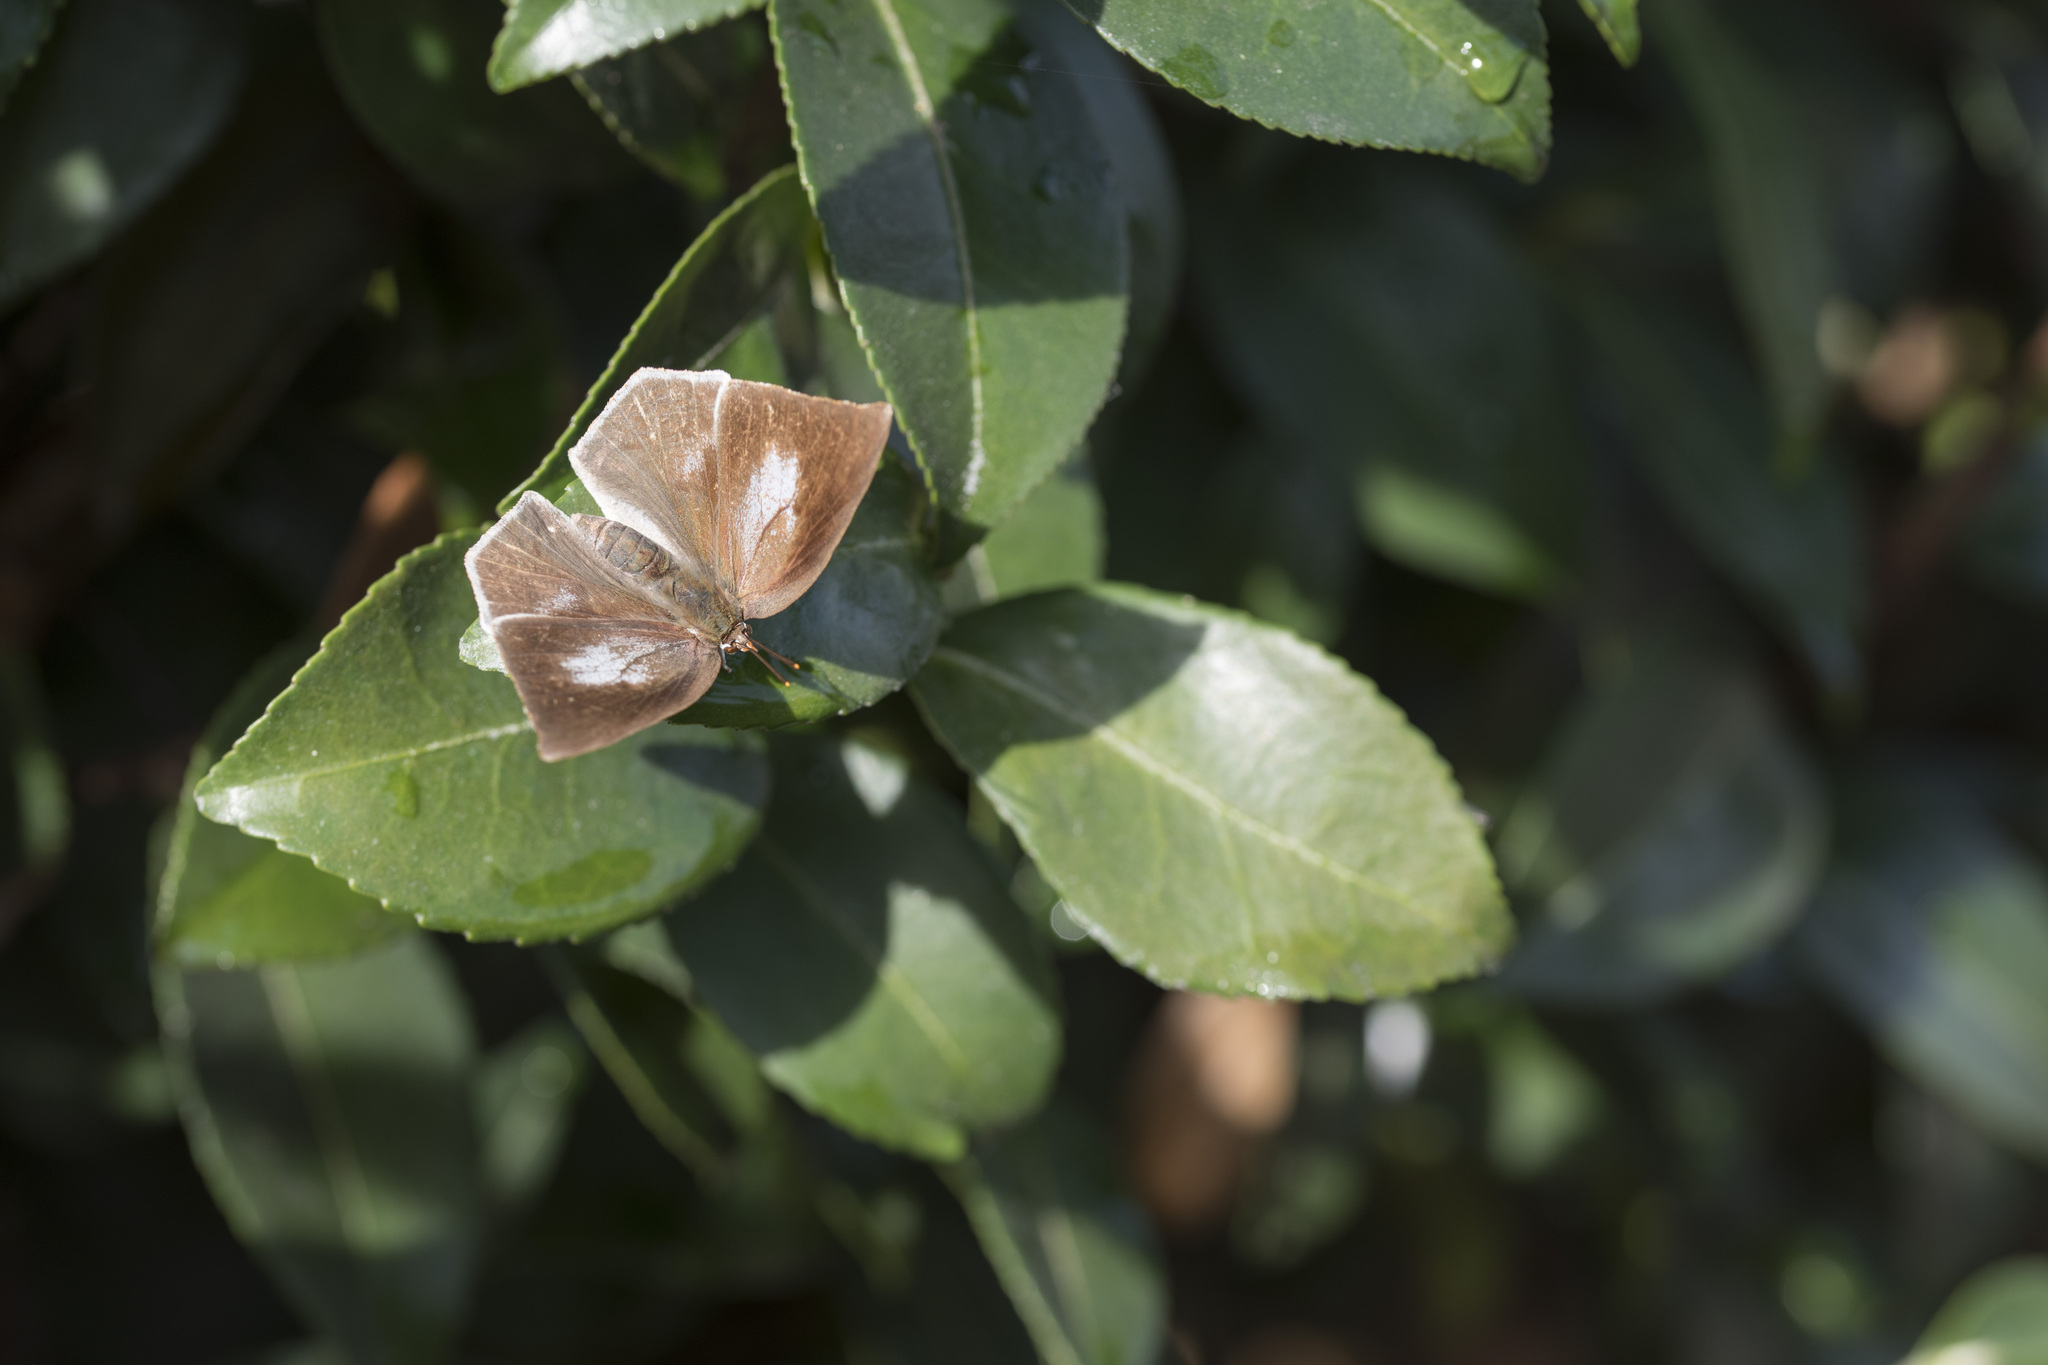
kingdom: Animalia
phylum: Arthropoda
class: Insecta
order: Lepidoptera
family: Lycaenidae
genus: Curetis
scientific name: Curetis acuta
